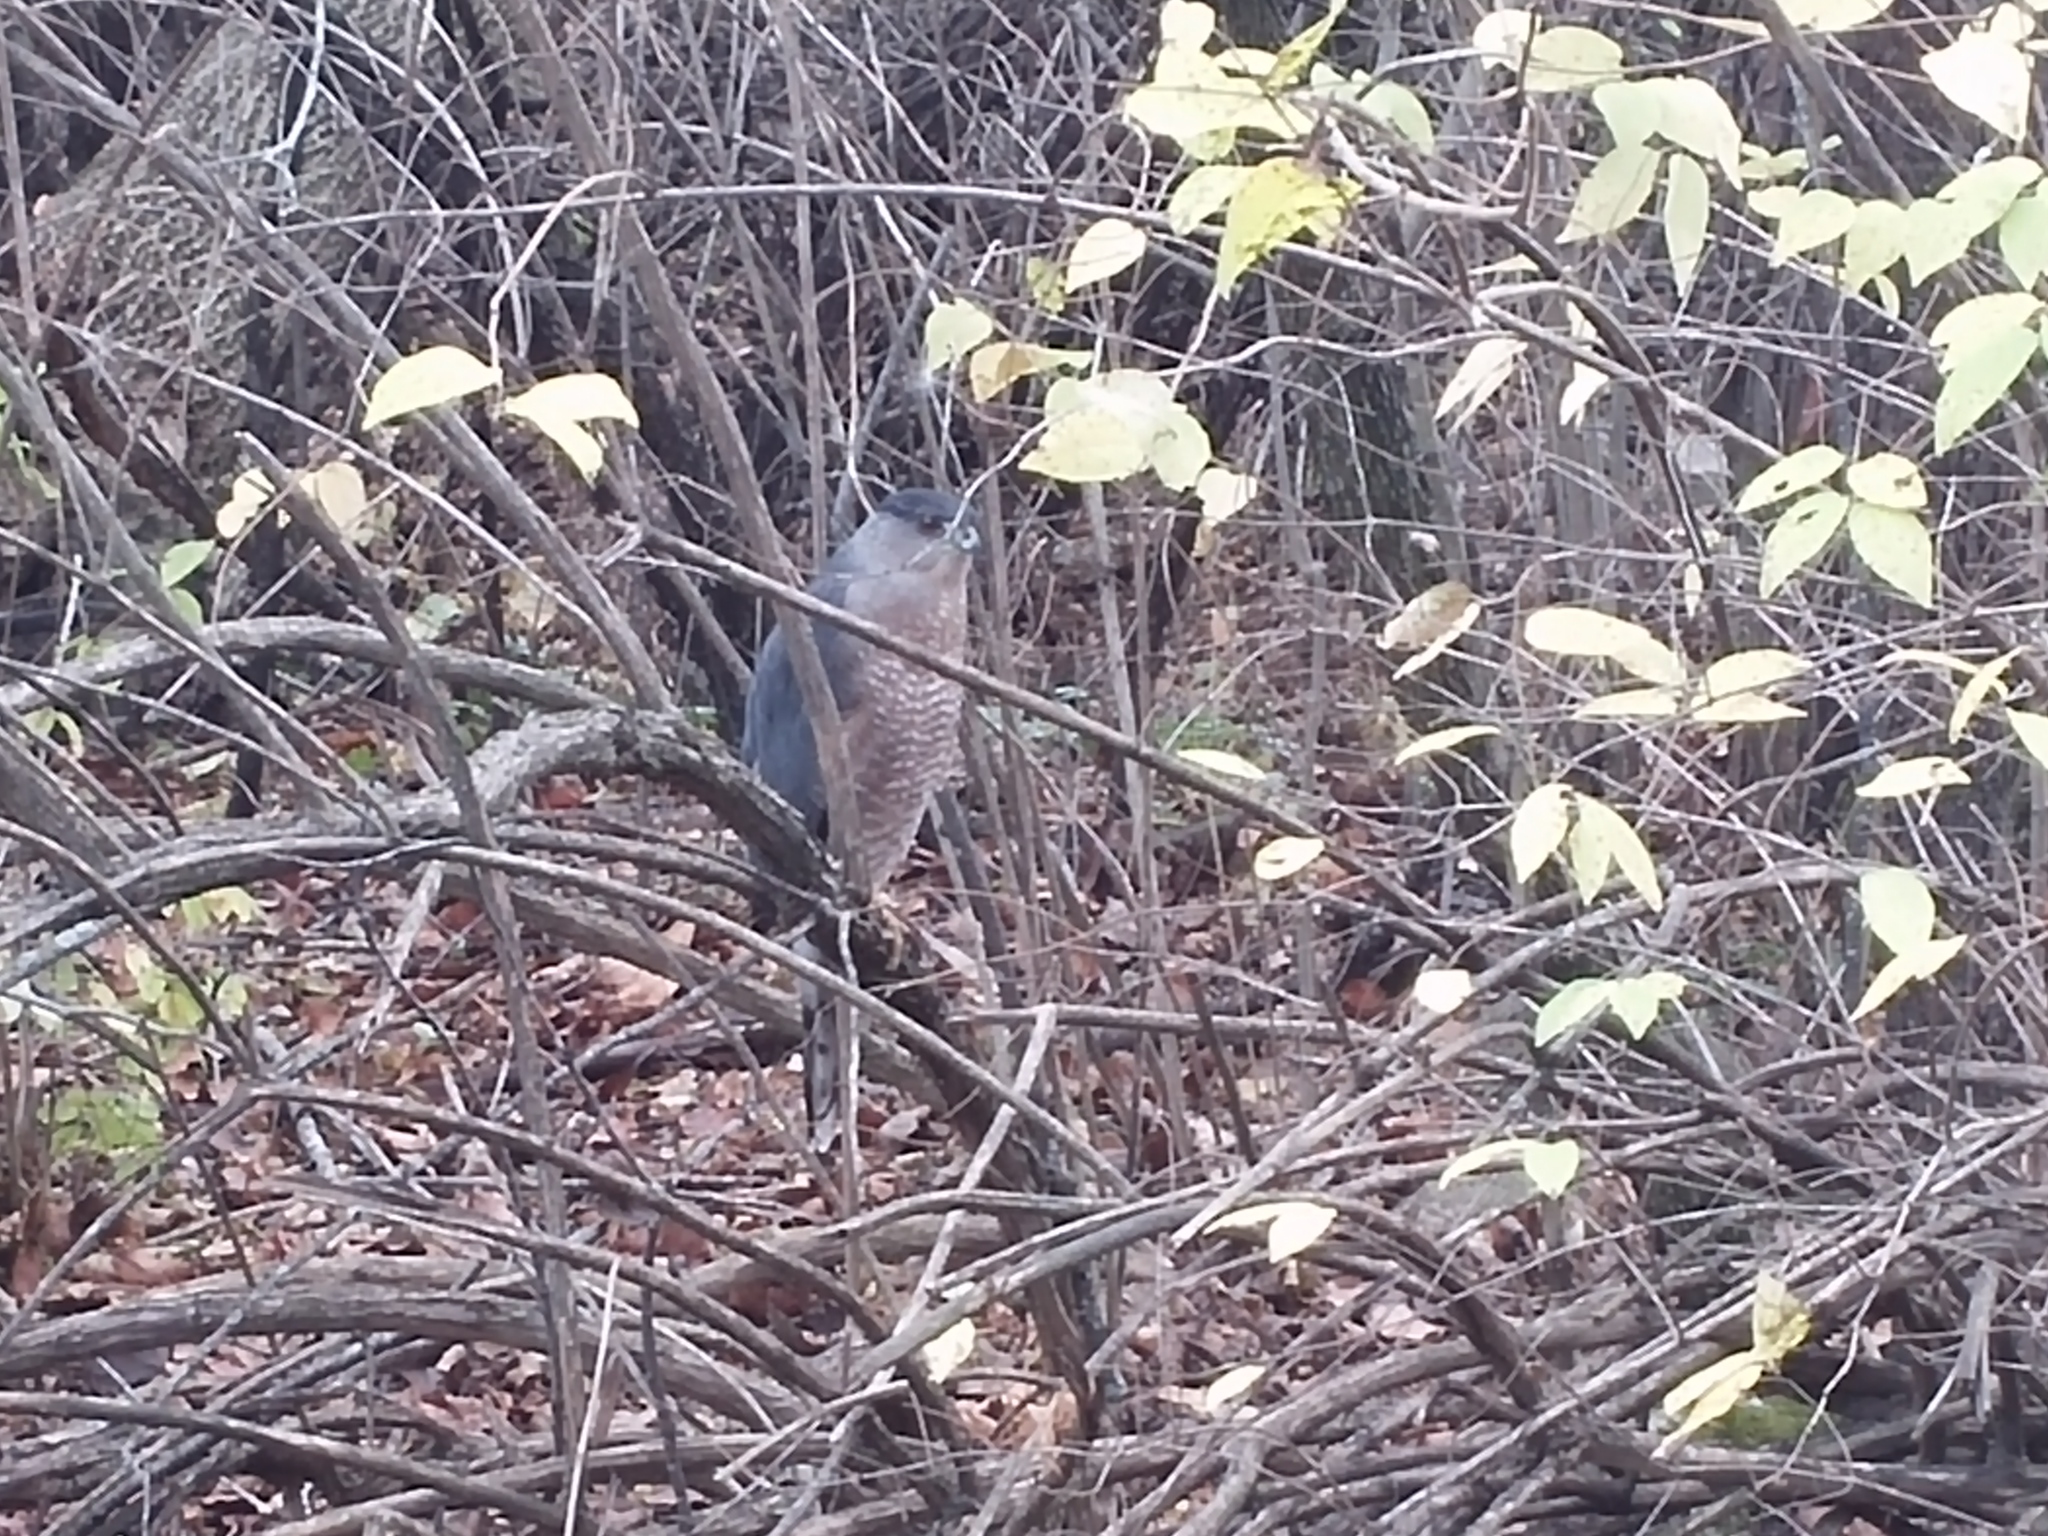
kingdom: Animalia
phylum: Chordata
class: Aves
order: Accipitriformes
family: Accipitridae
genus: Accipiter
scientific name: Accipiter cooperii
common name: Cooper's hawk
